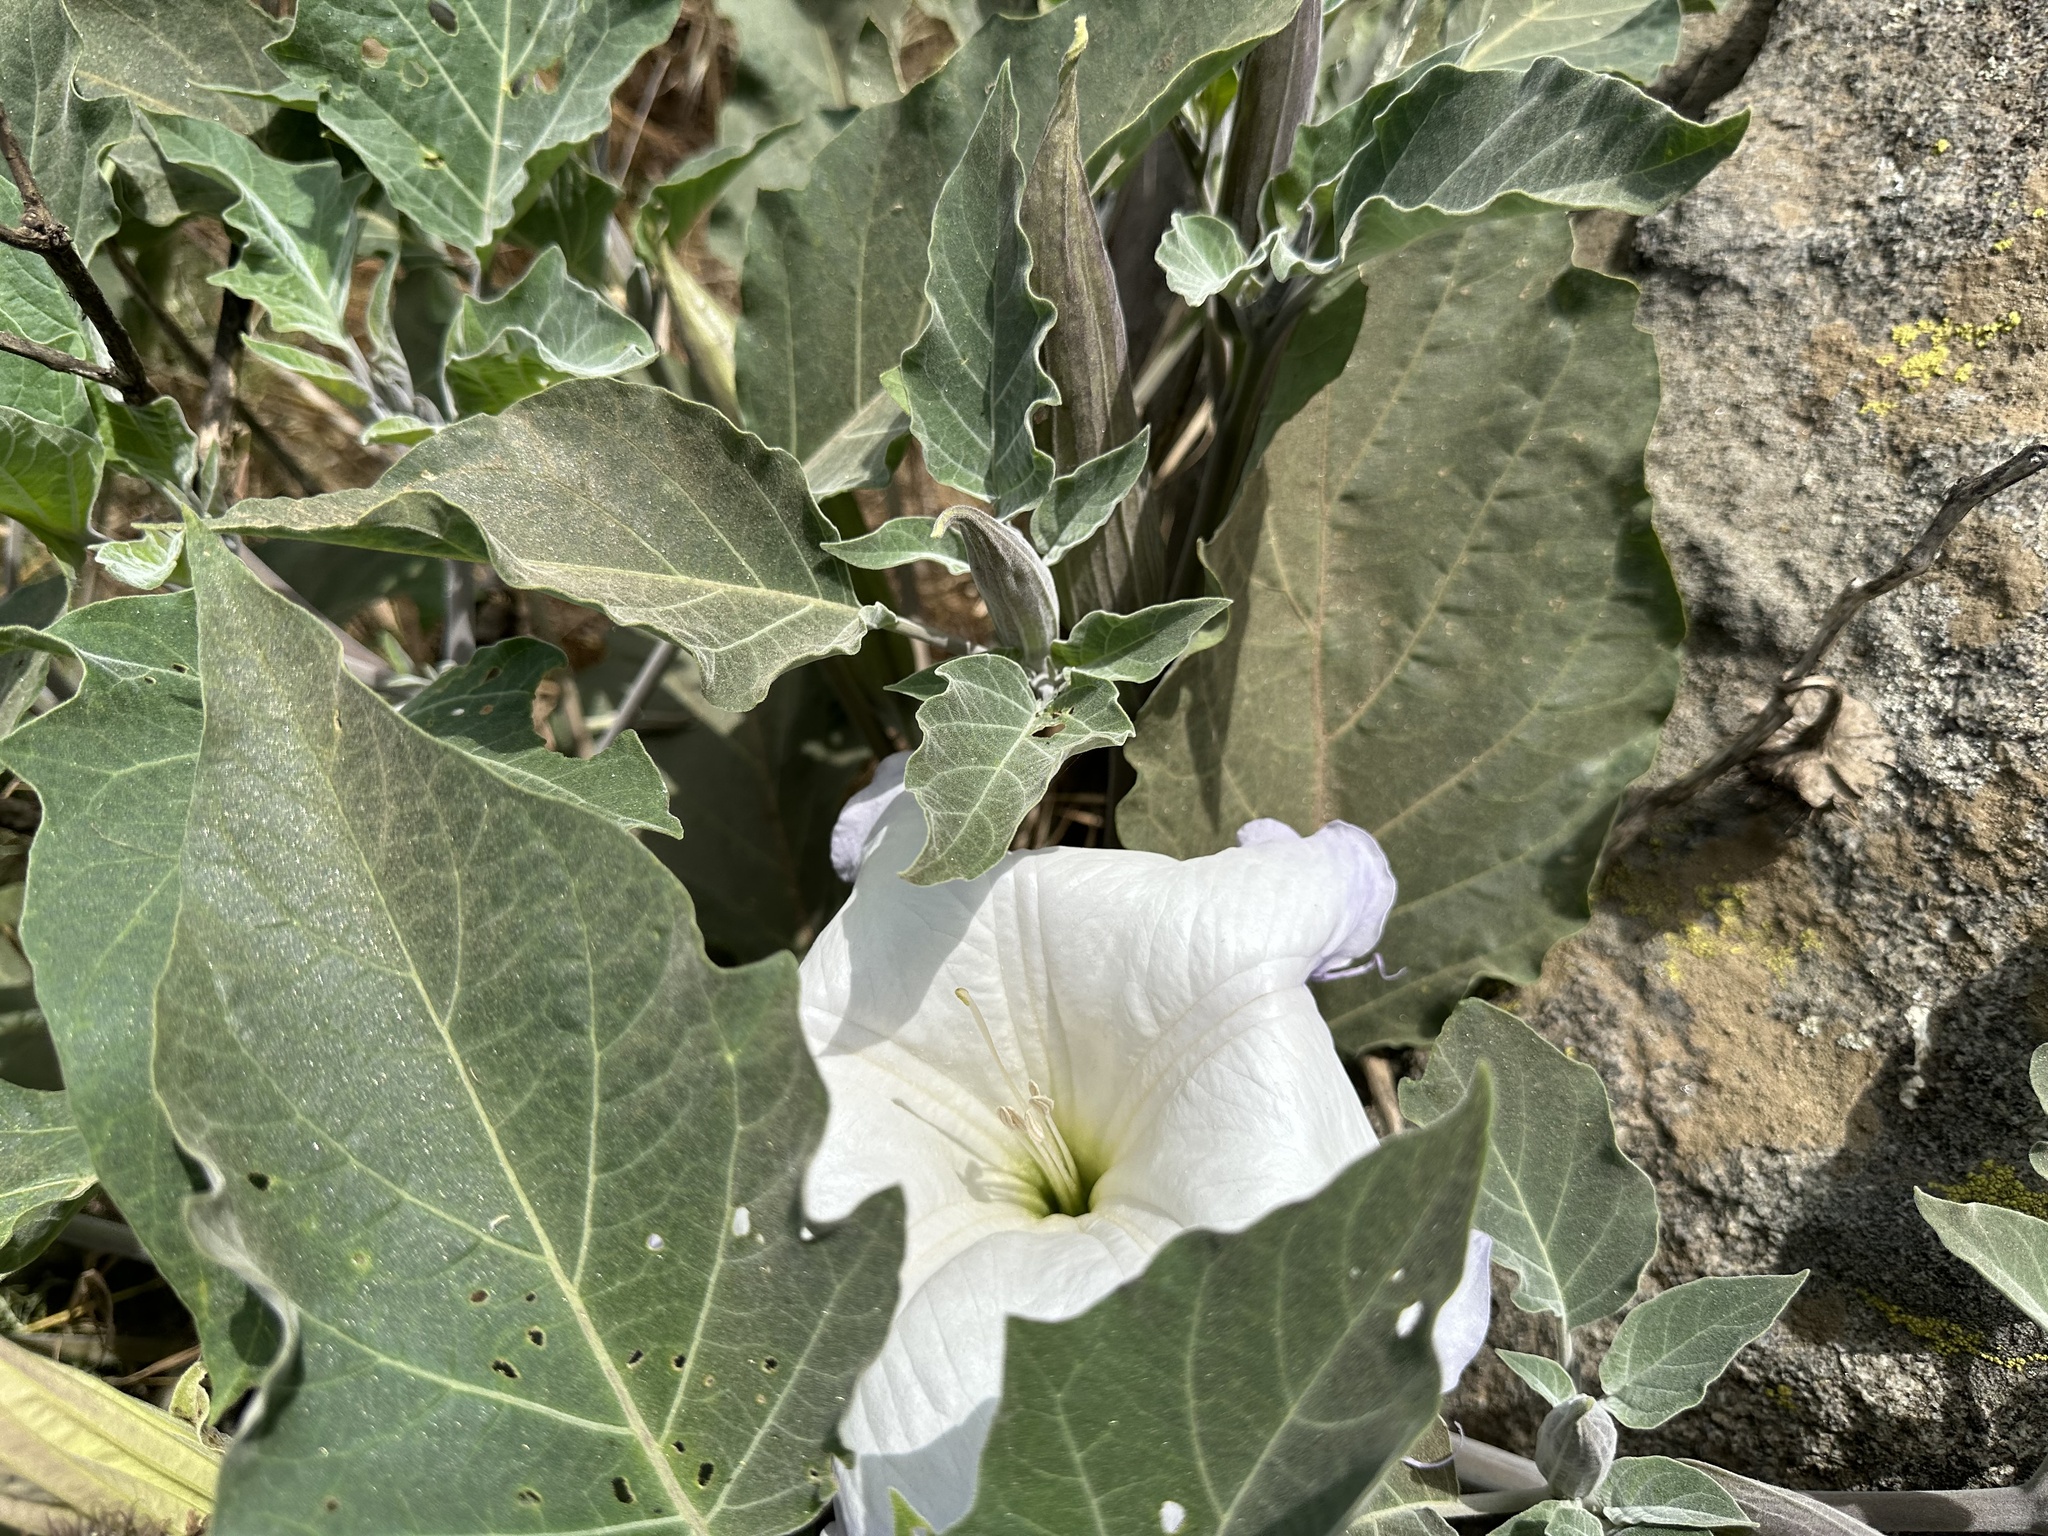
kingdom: Plantae
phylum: Tracheophyta
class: Magnoliopsida
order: Solanales
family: Solanaceae
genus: Datura
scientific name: Datura wrightii
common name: Sacred thorn-apple
